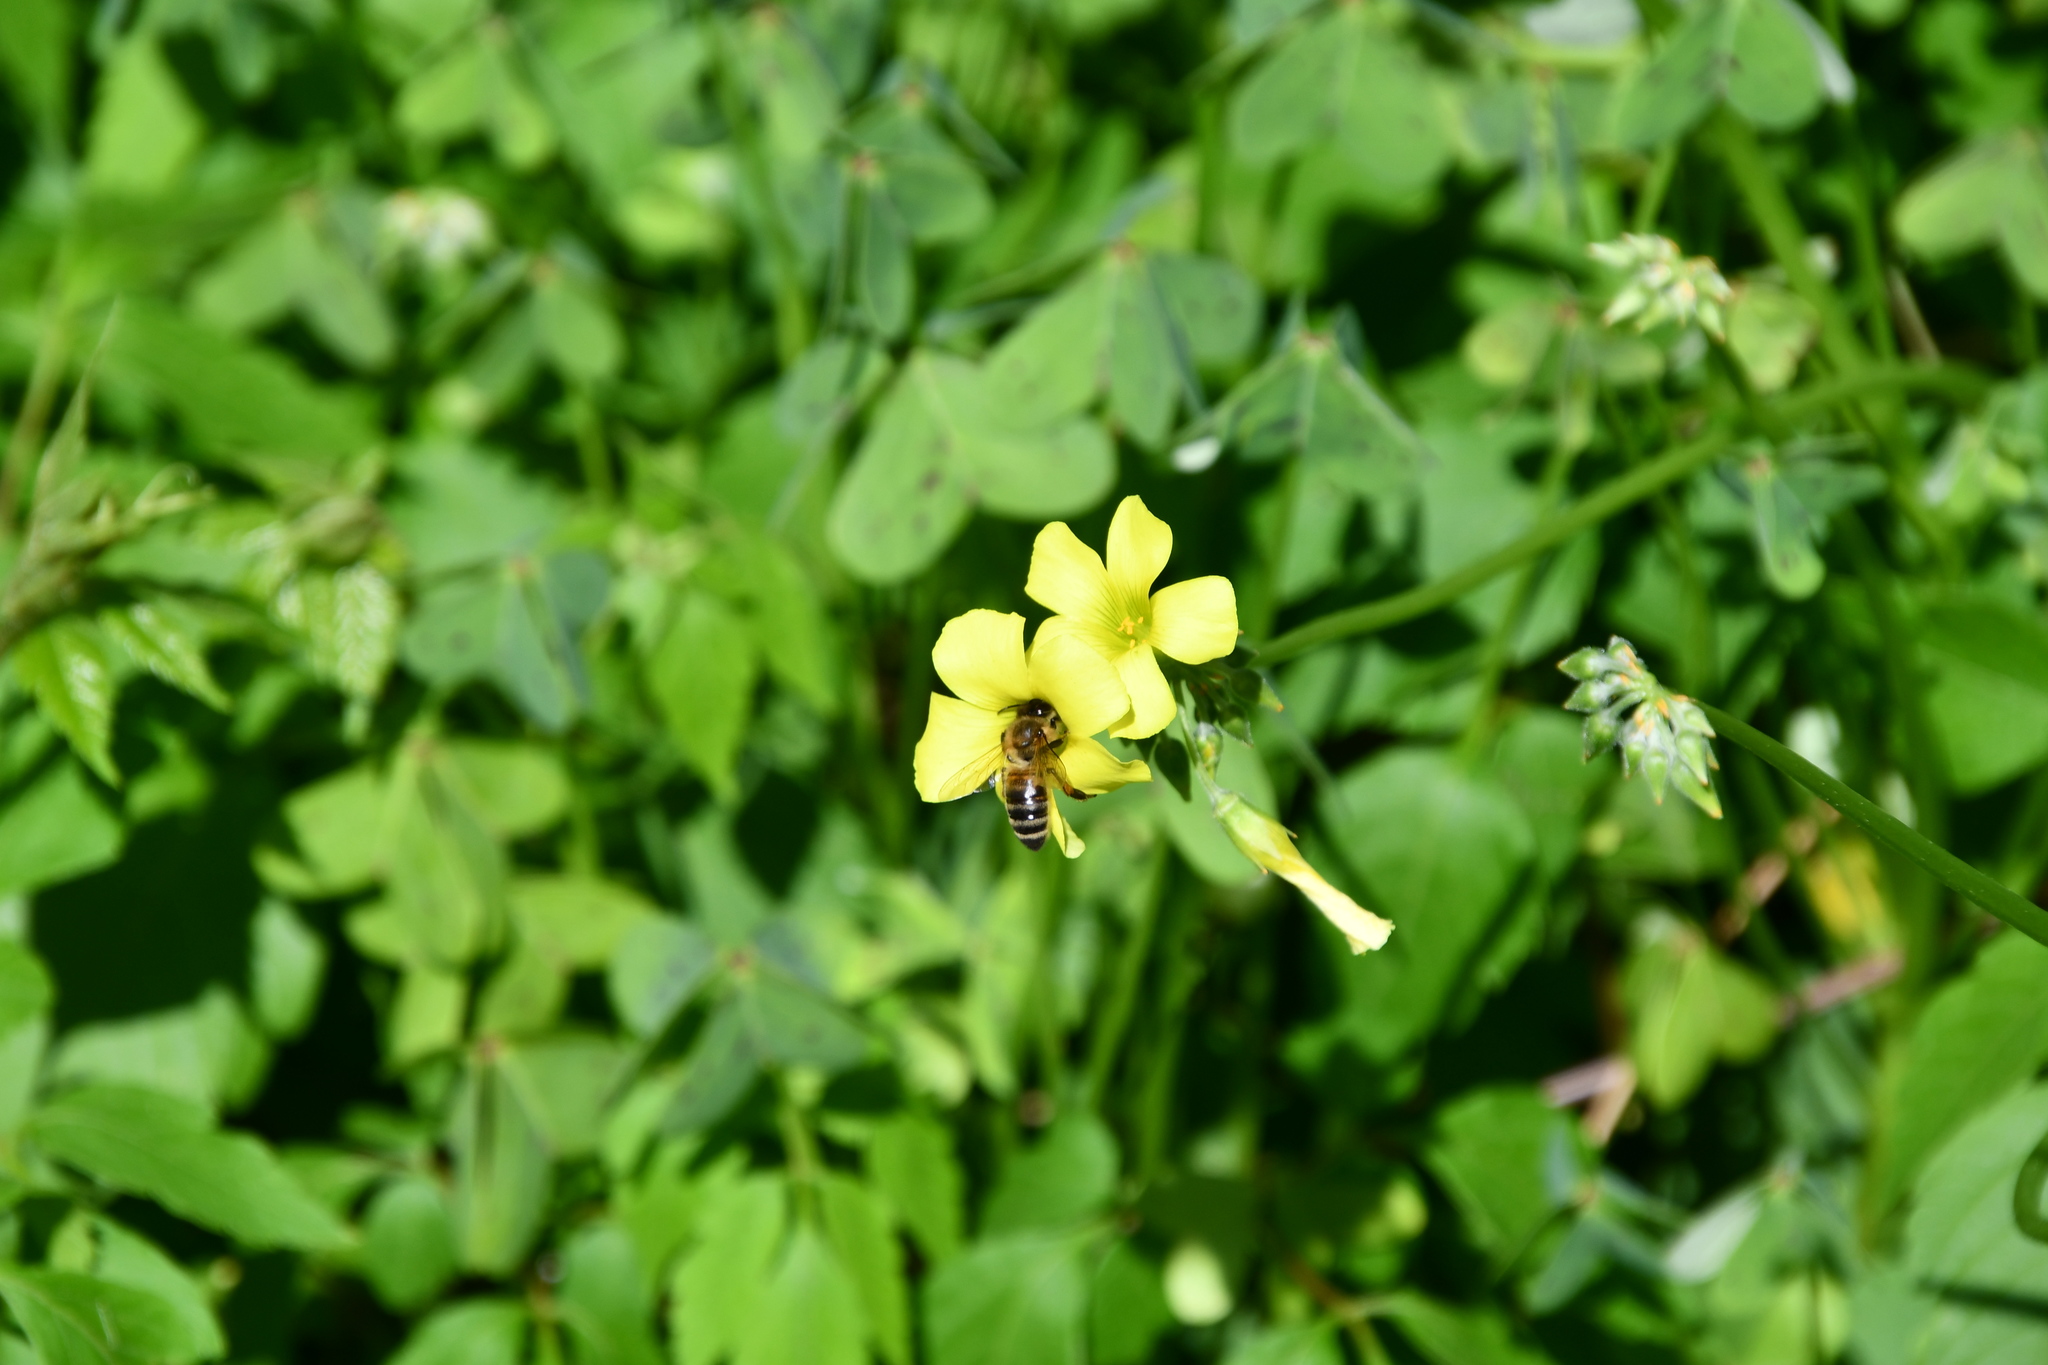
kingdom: Animalia
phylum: Arthropoda
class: Insecta
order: Hymenoptera
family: Apidae
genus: Apis
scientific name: Apis mellifera
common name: Honey bee
